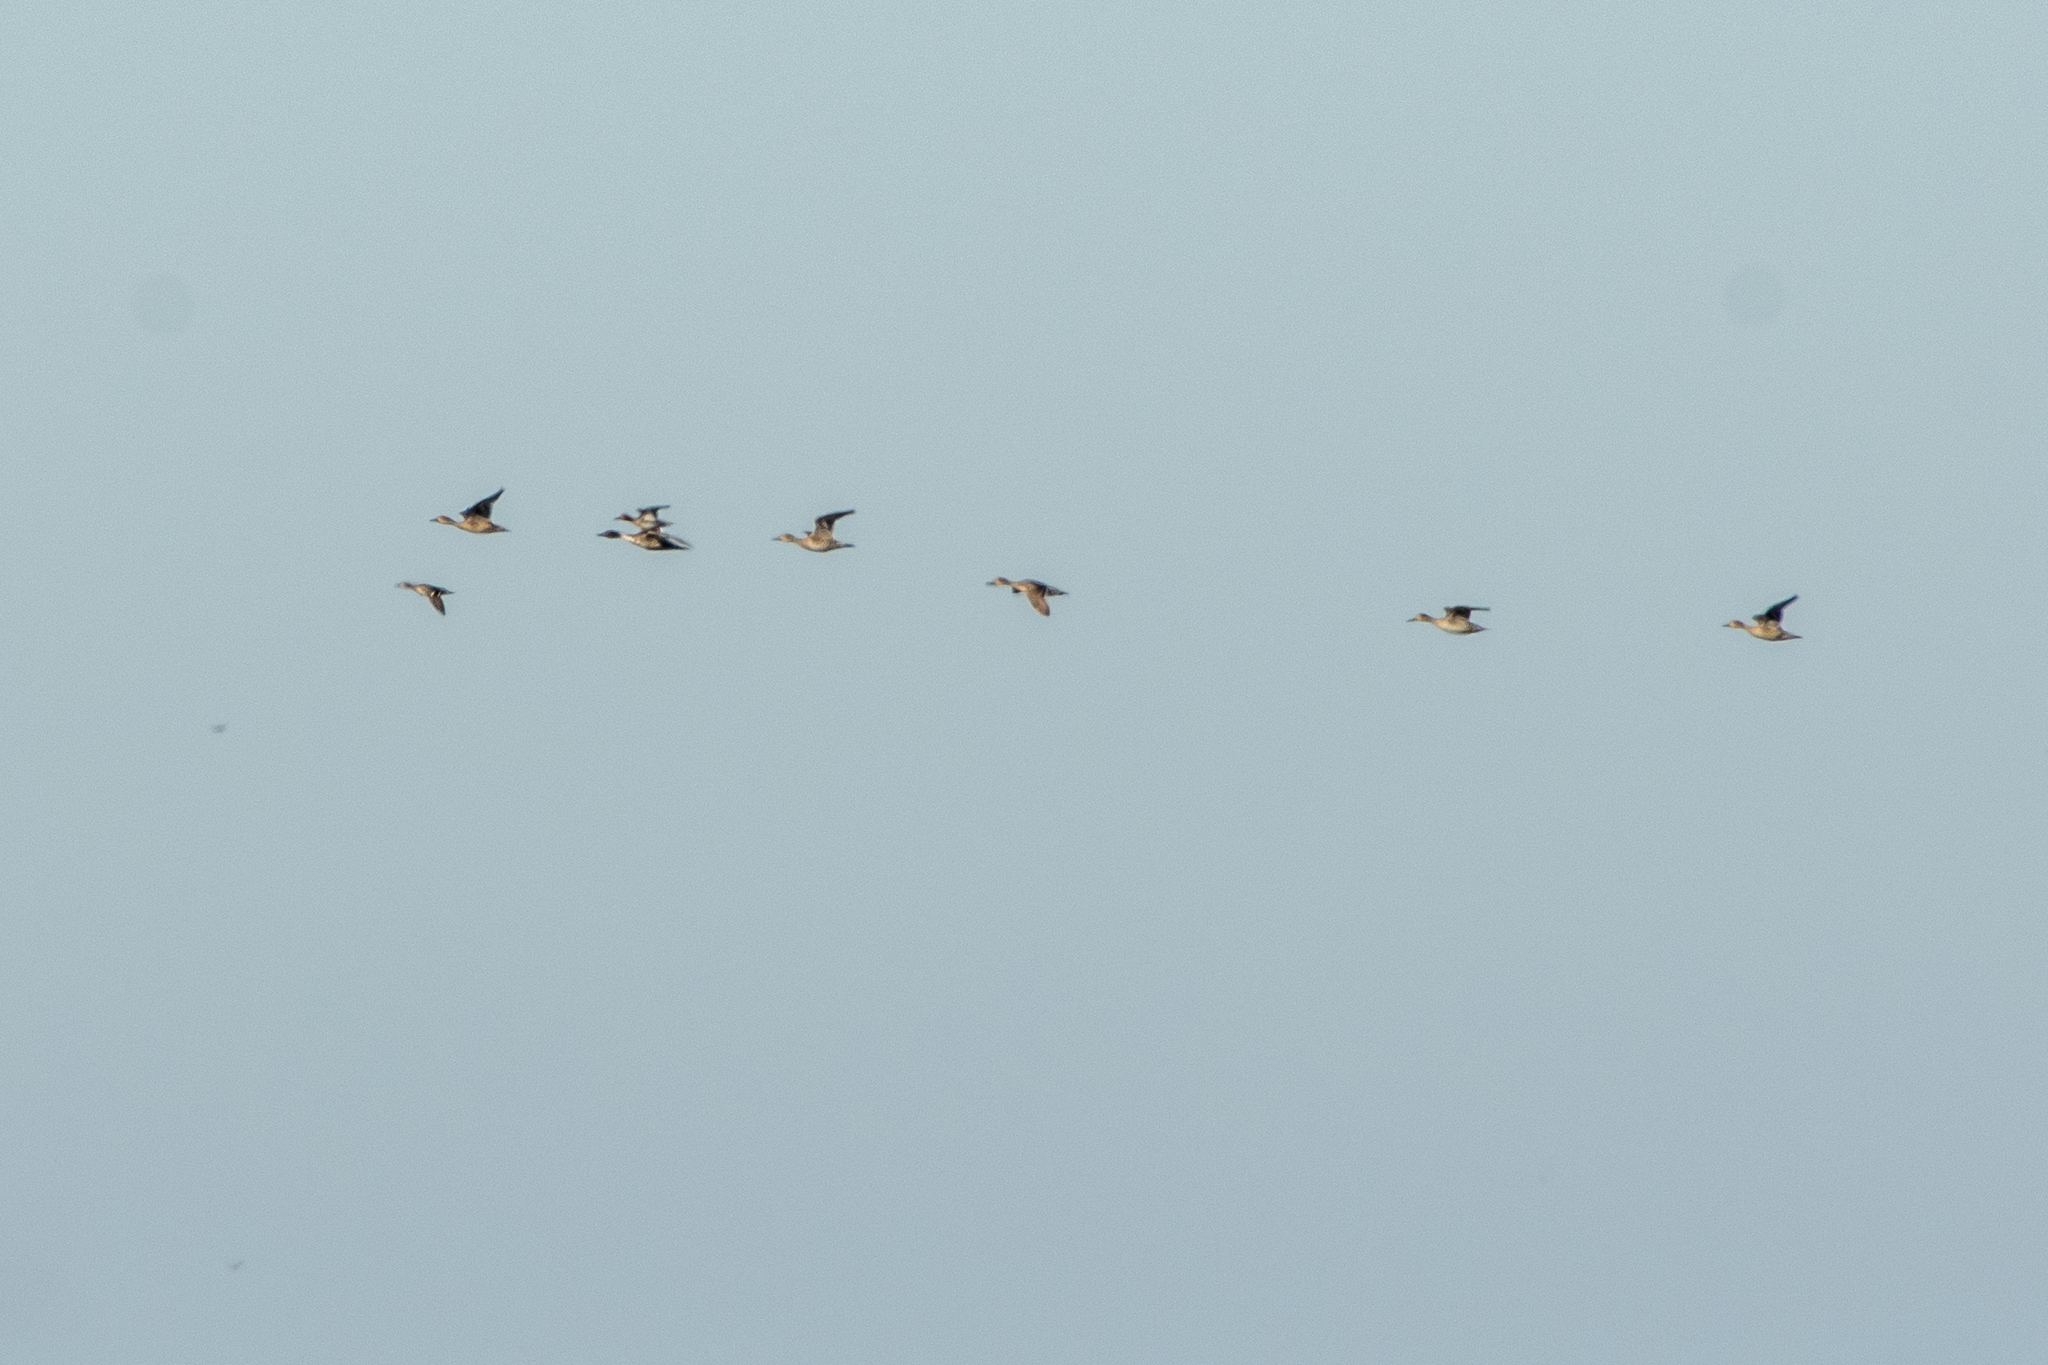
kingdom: Animalia
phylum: Chordata
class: Aves
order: Anseriformes
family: Anatidae
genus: Anas
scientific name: Anas acuta
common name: Northern pintail
